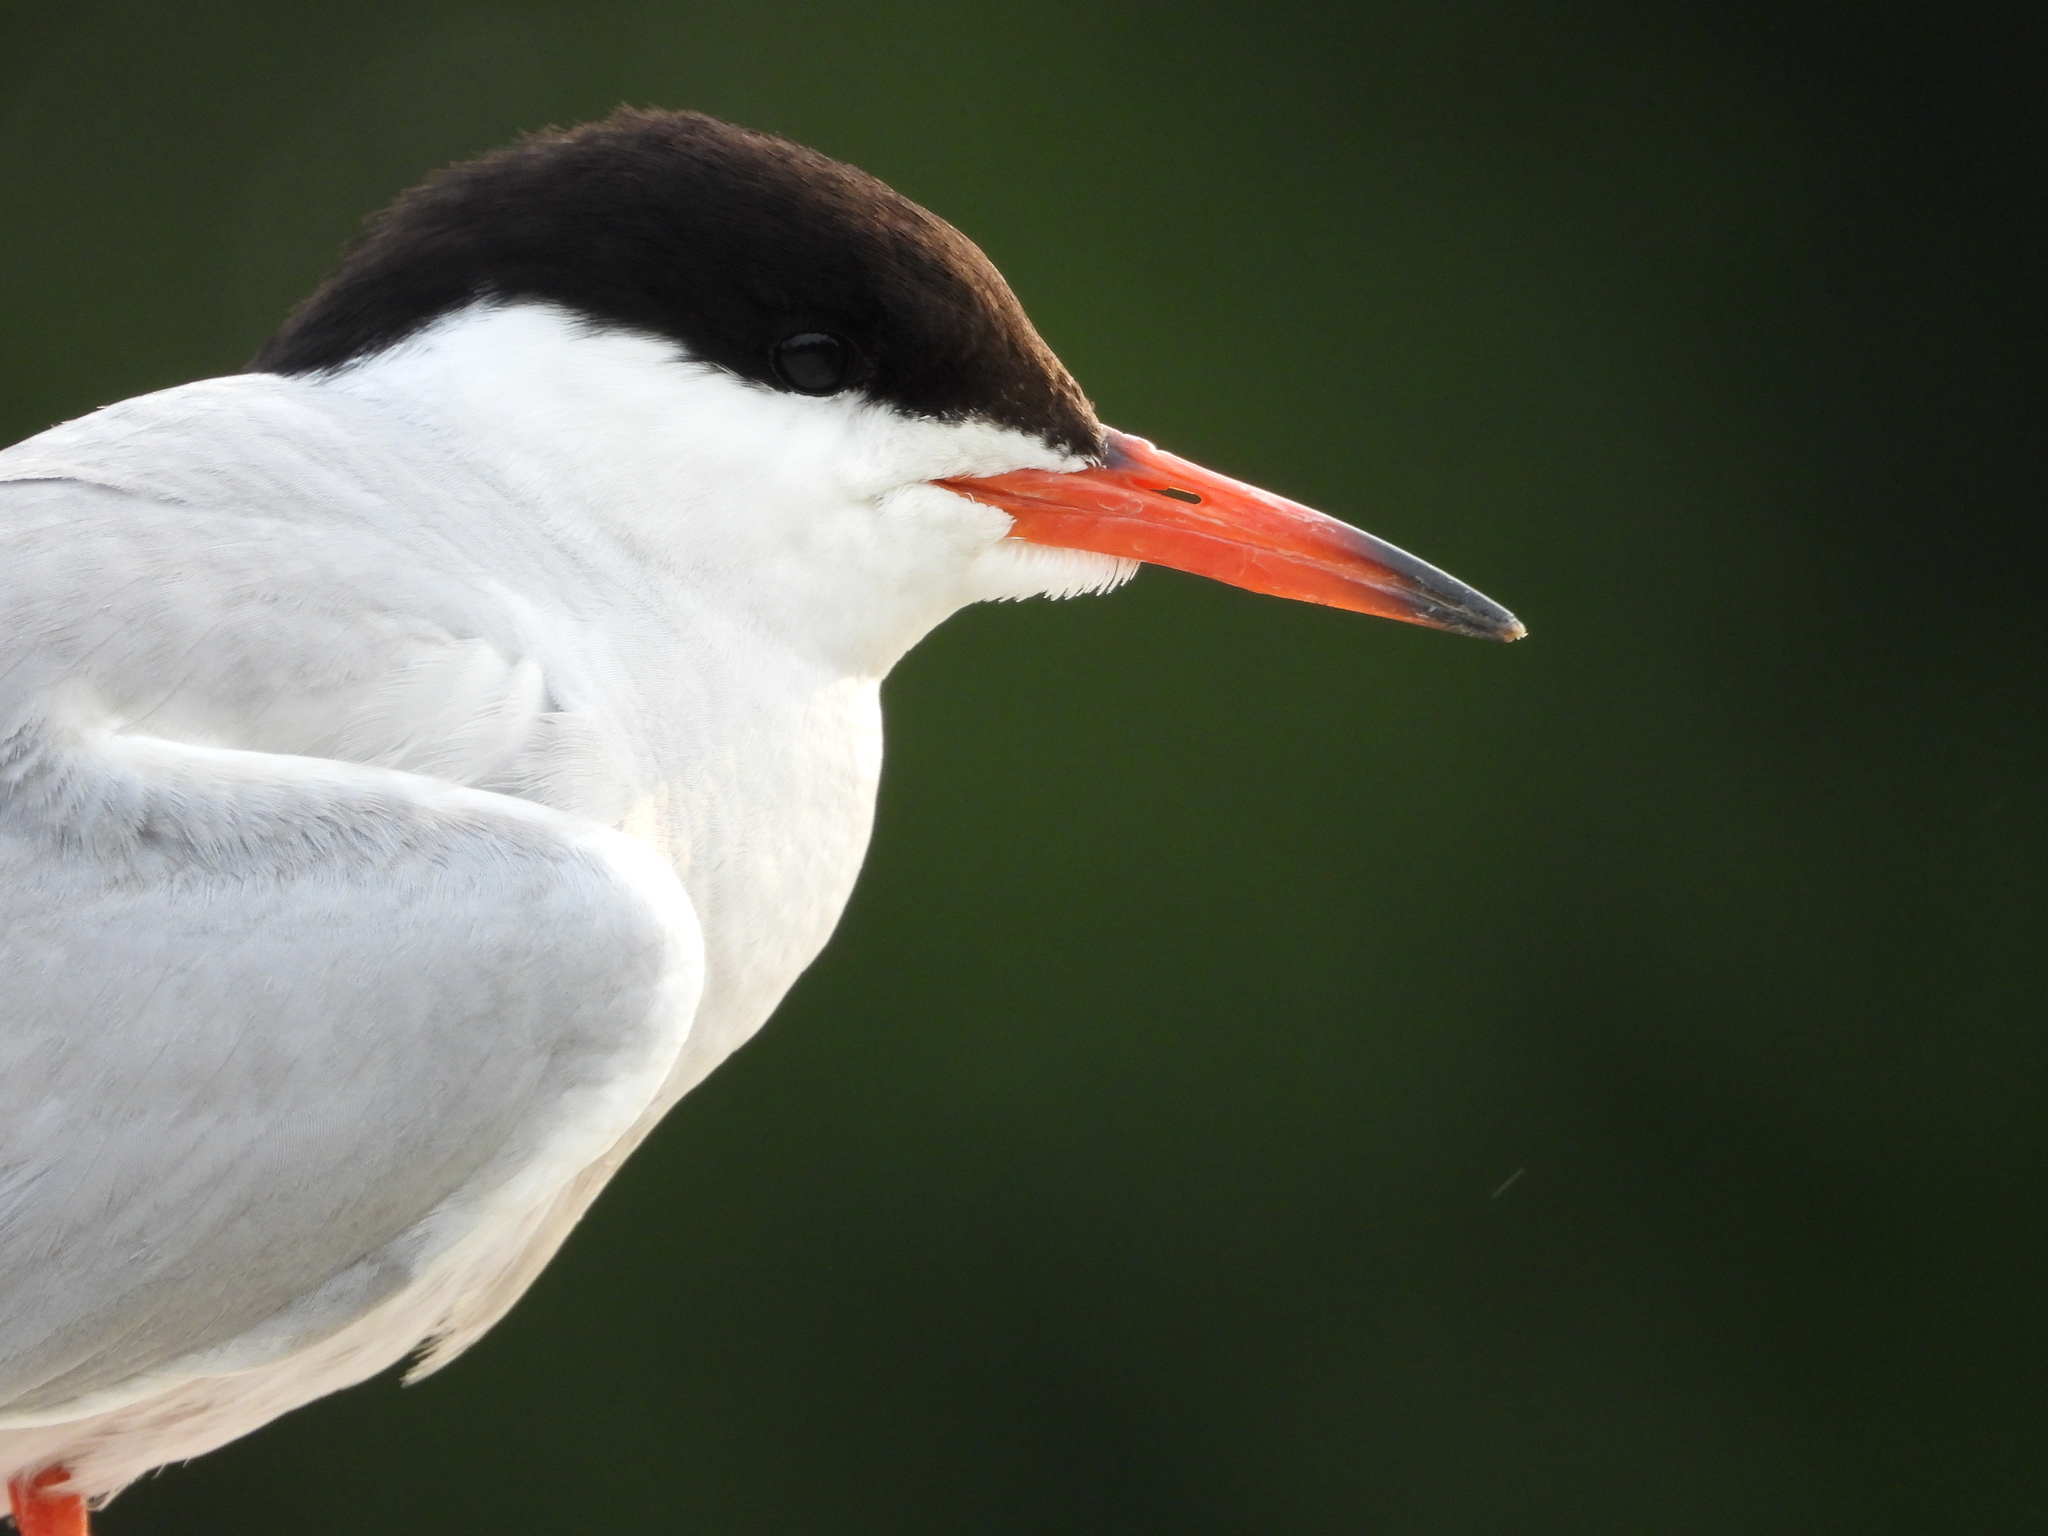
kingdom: Animalia
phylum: Chordata
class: Aves
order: Charadriiformes
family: Laridae
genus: Sterna
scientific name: Sterna hirundo
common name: Common tern
